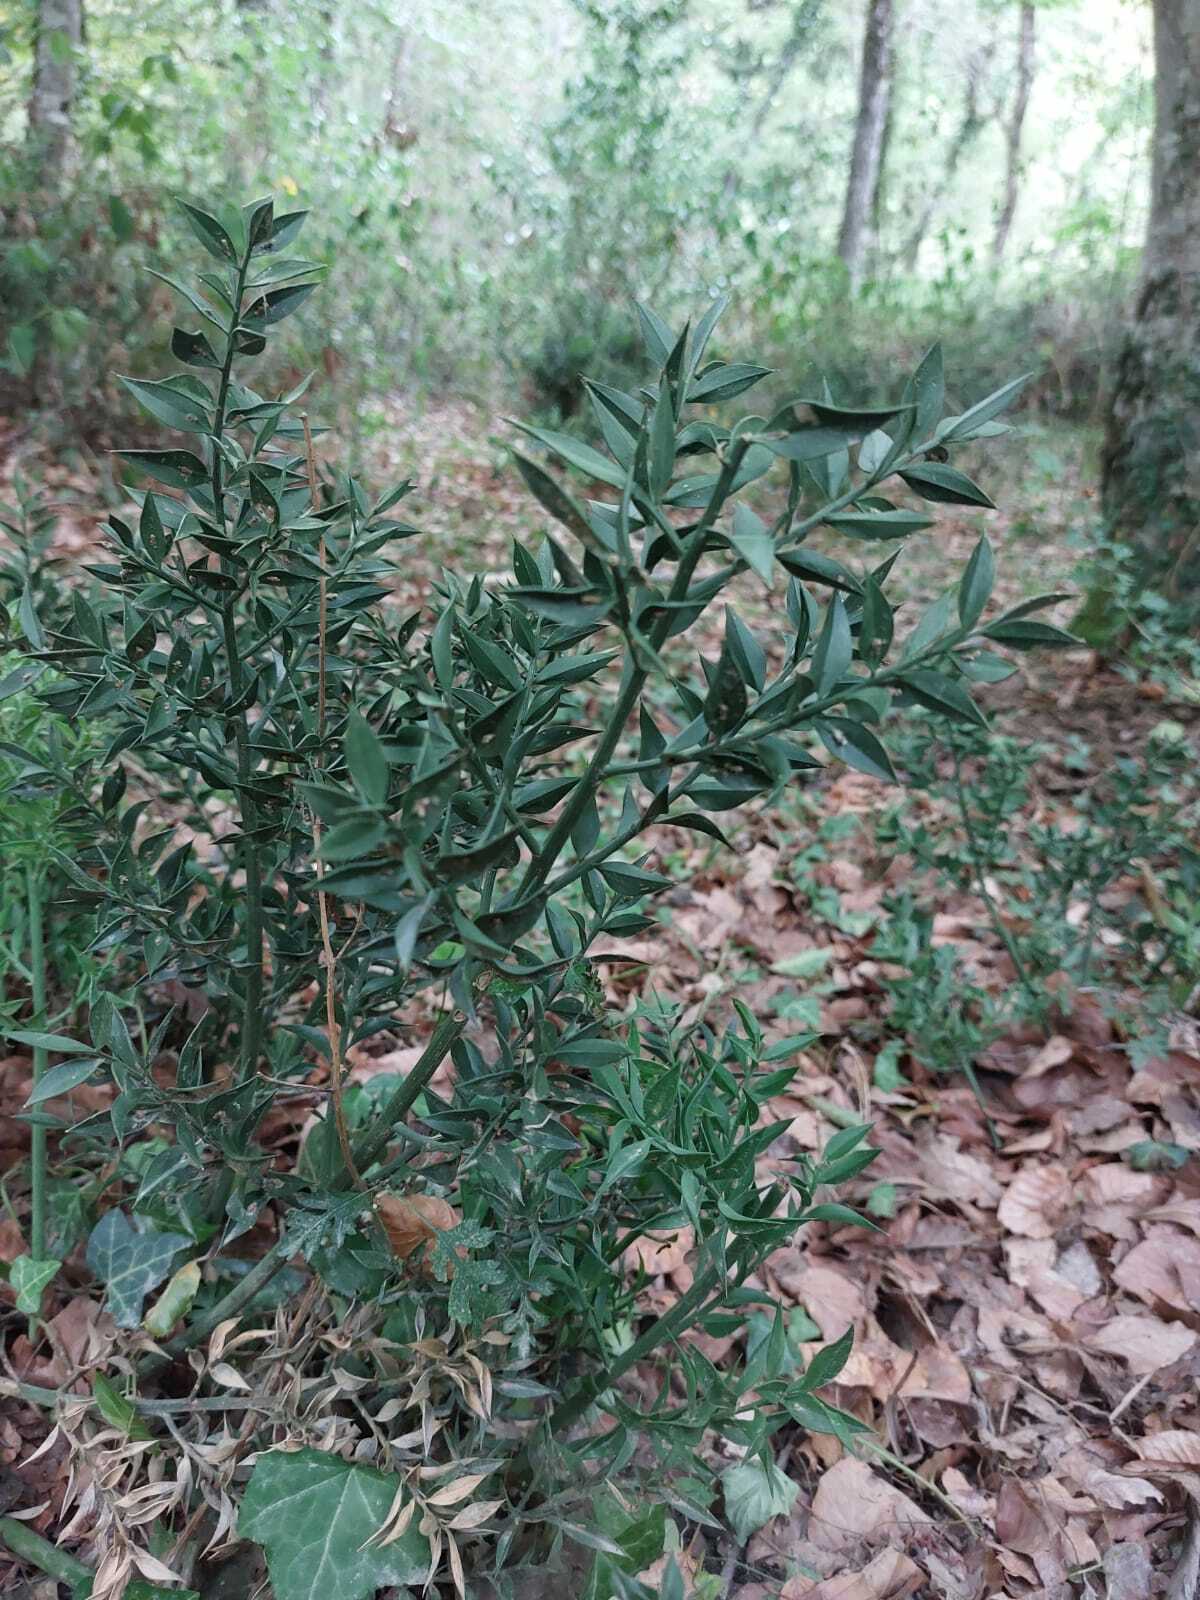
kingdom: Plantae
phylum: Tracheophyta
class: Liliopsida
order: Asparagales
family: Asparagaceae
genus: Ruscus
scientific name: Ruscus aculeatus
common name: Butcher's-broom
